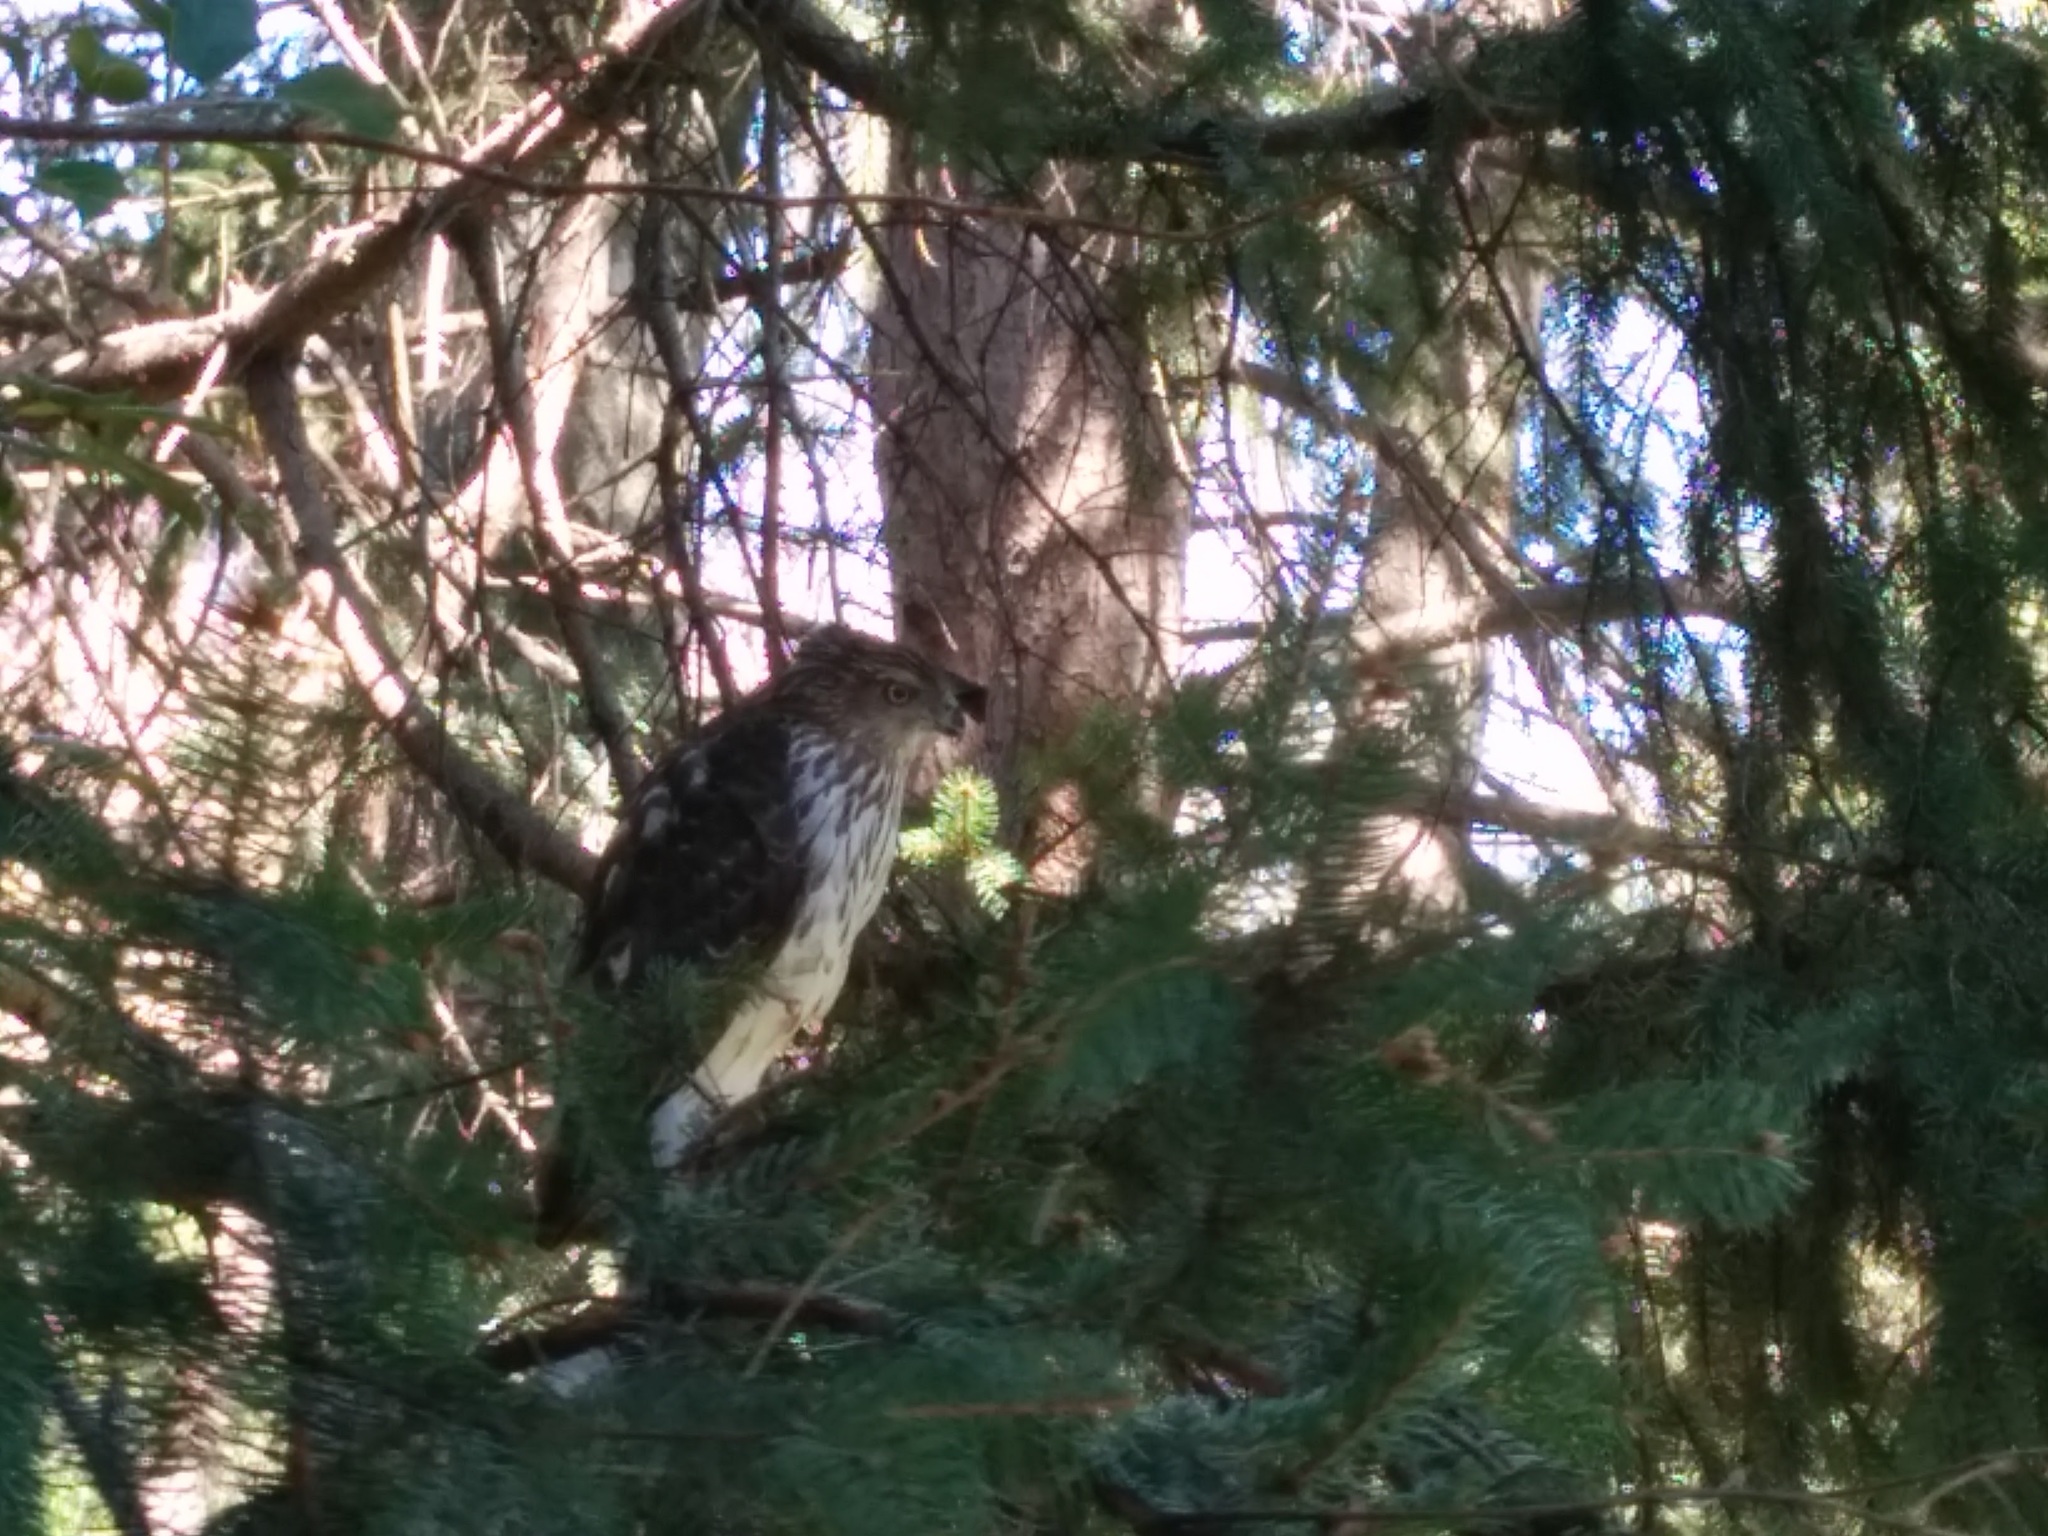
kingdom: Animalia
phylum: Chordata
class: Aves
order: Accipitriformes
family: Accipitridae
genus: Accipiter
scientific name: Accipiter cooperii
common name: Cooper's hawk
